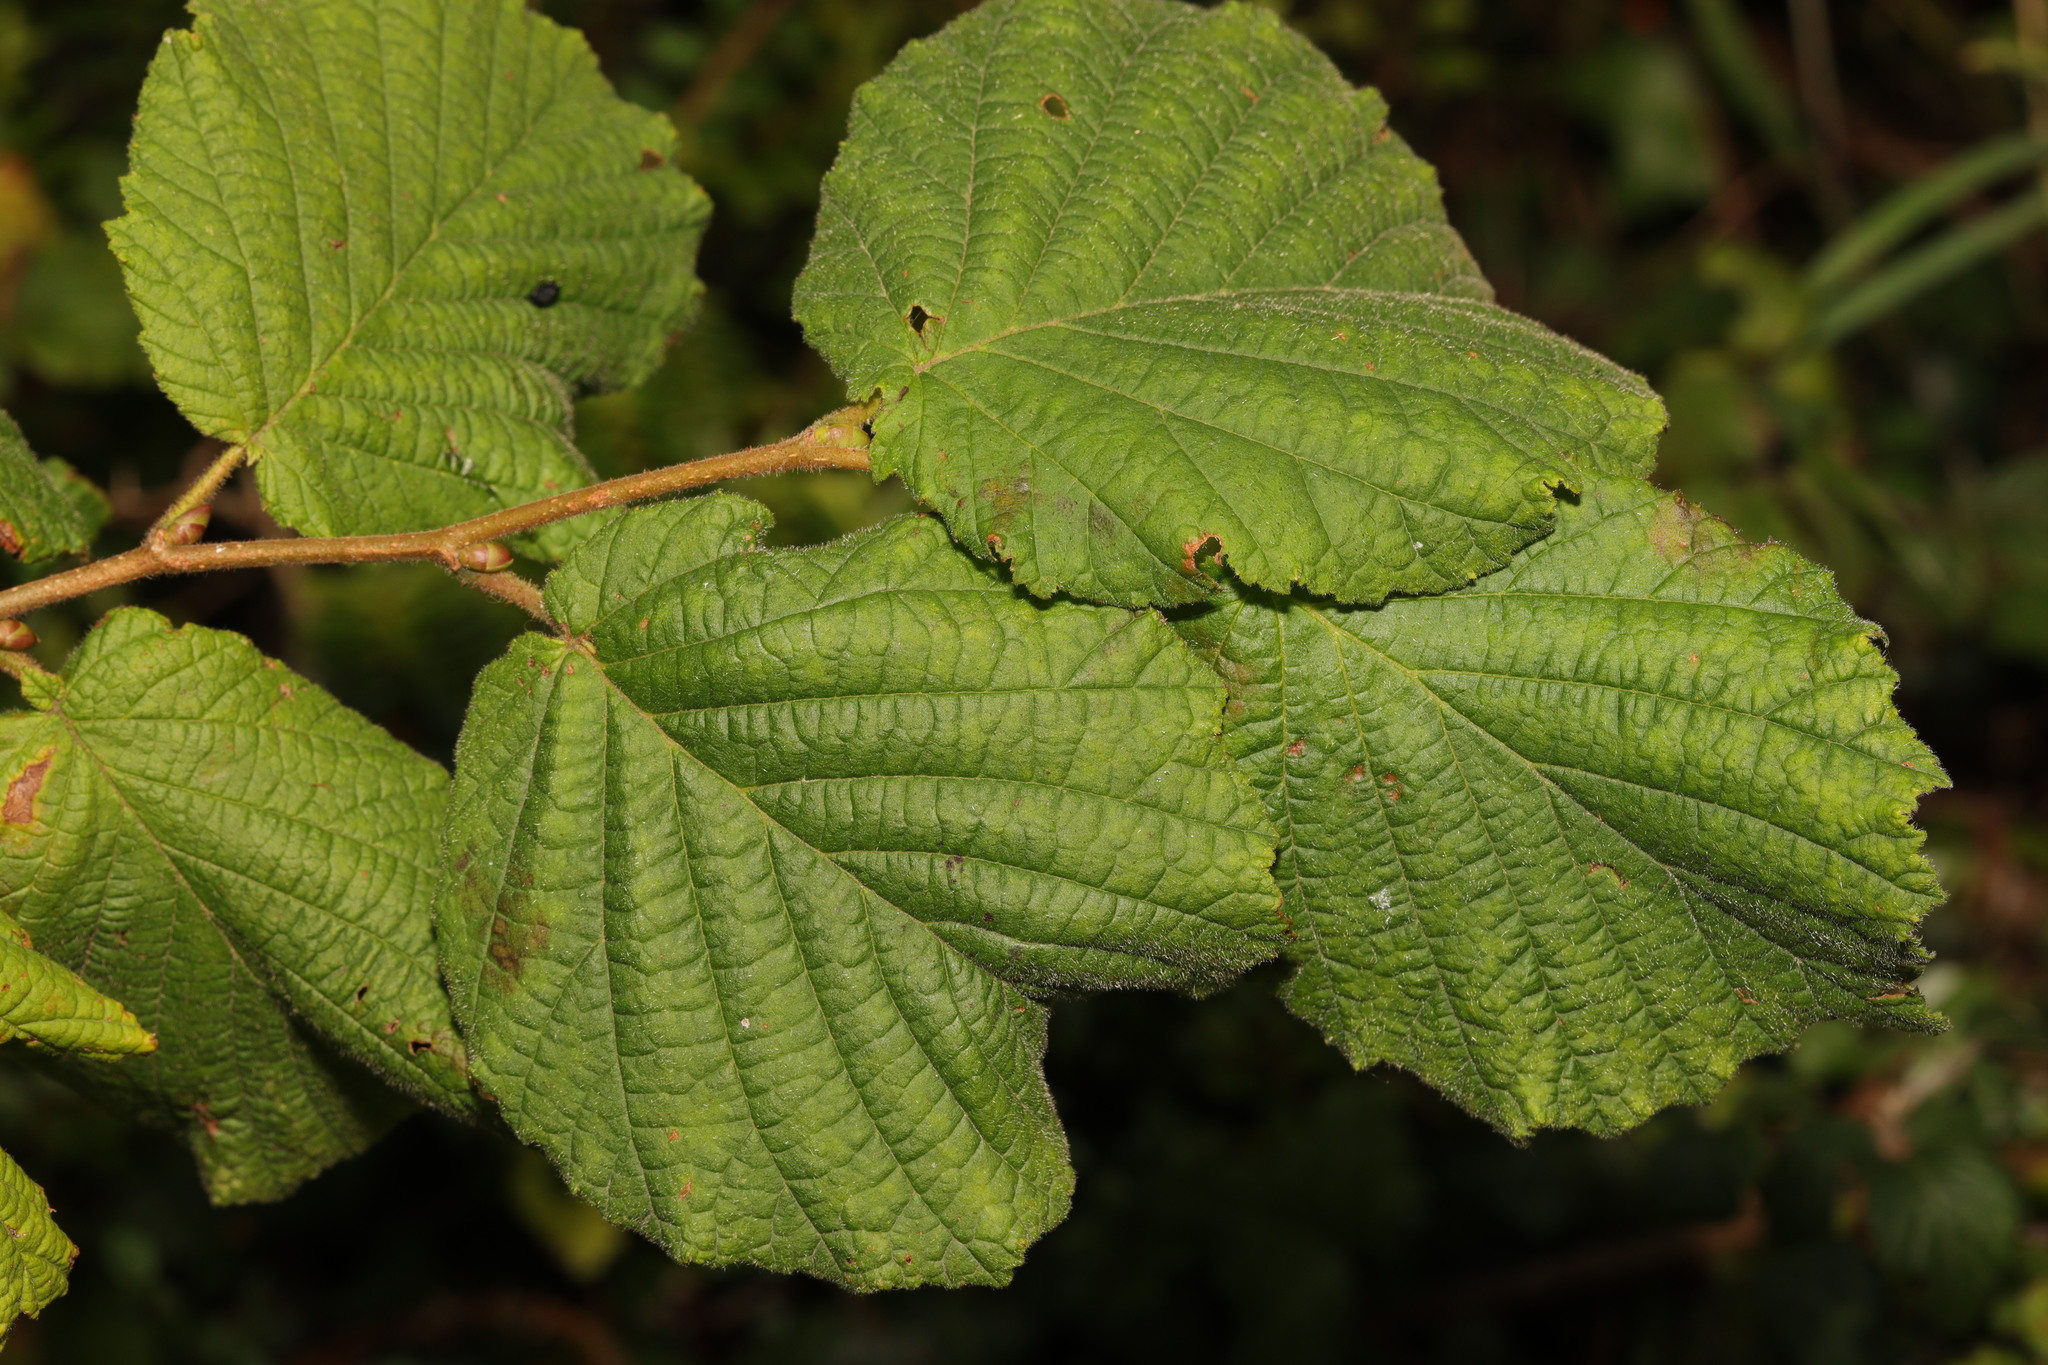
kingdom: Plantae
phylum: Tracheophyta
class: Magnoliopsida
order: Fagales
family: Betulaceae
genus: Corylus
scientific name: Corylus avellana
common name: European hazel
